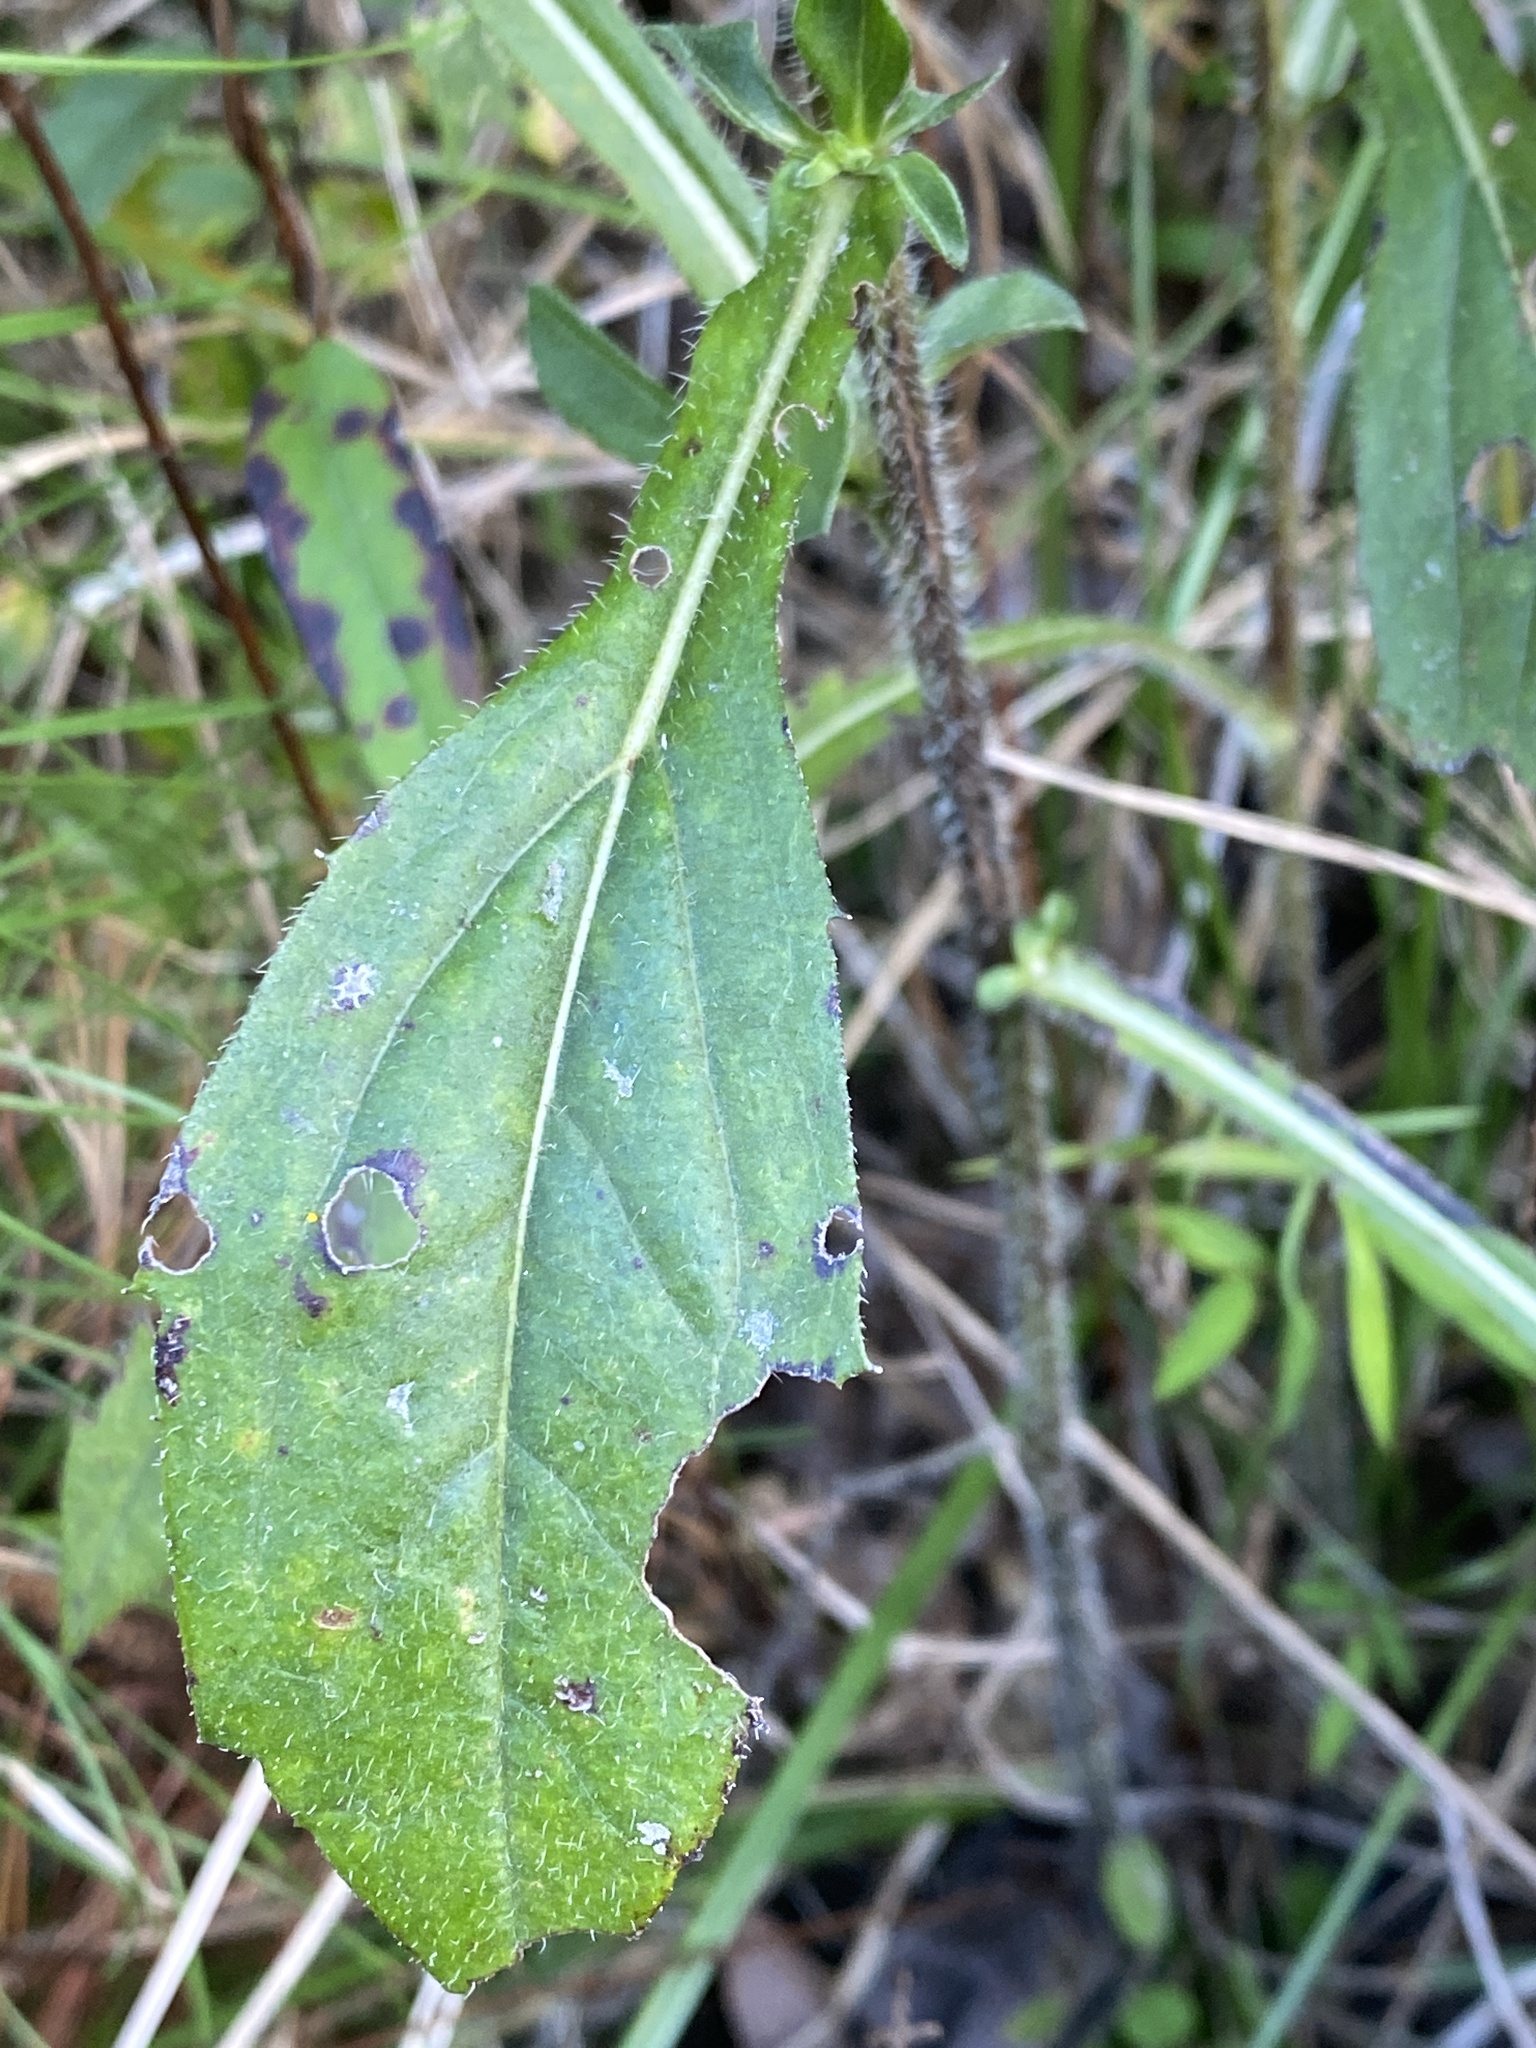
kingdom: Plantae
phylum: Tracheophyta
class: Magnoliopsida
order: Asterales
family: Asteraceae
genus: Rudbeckia
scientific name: Rudbeckia fulgida
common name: Perennial coneflower
